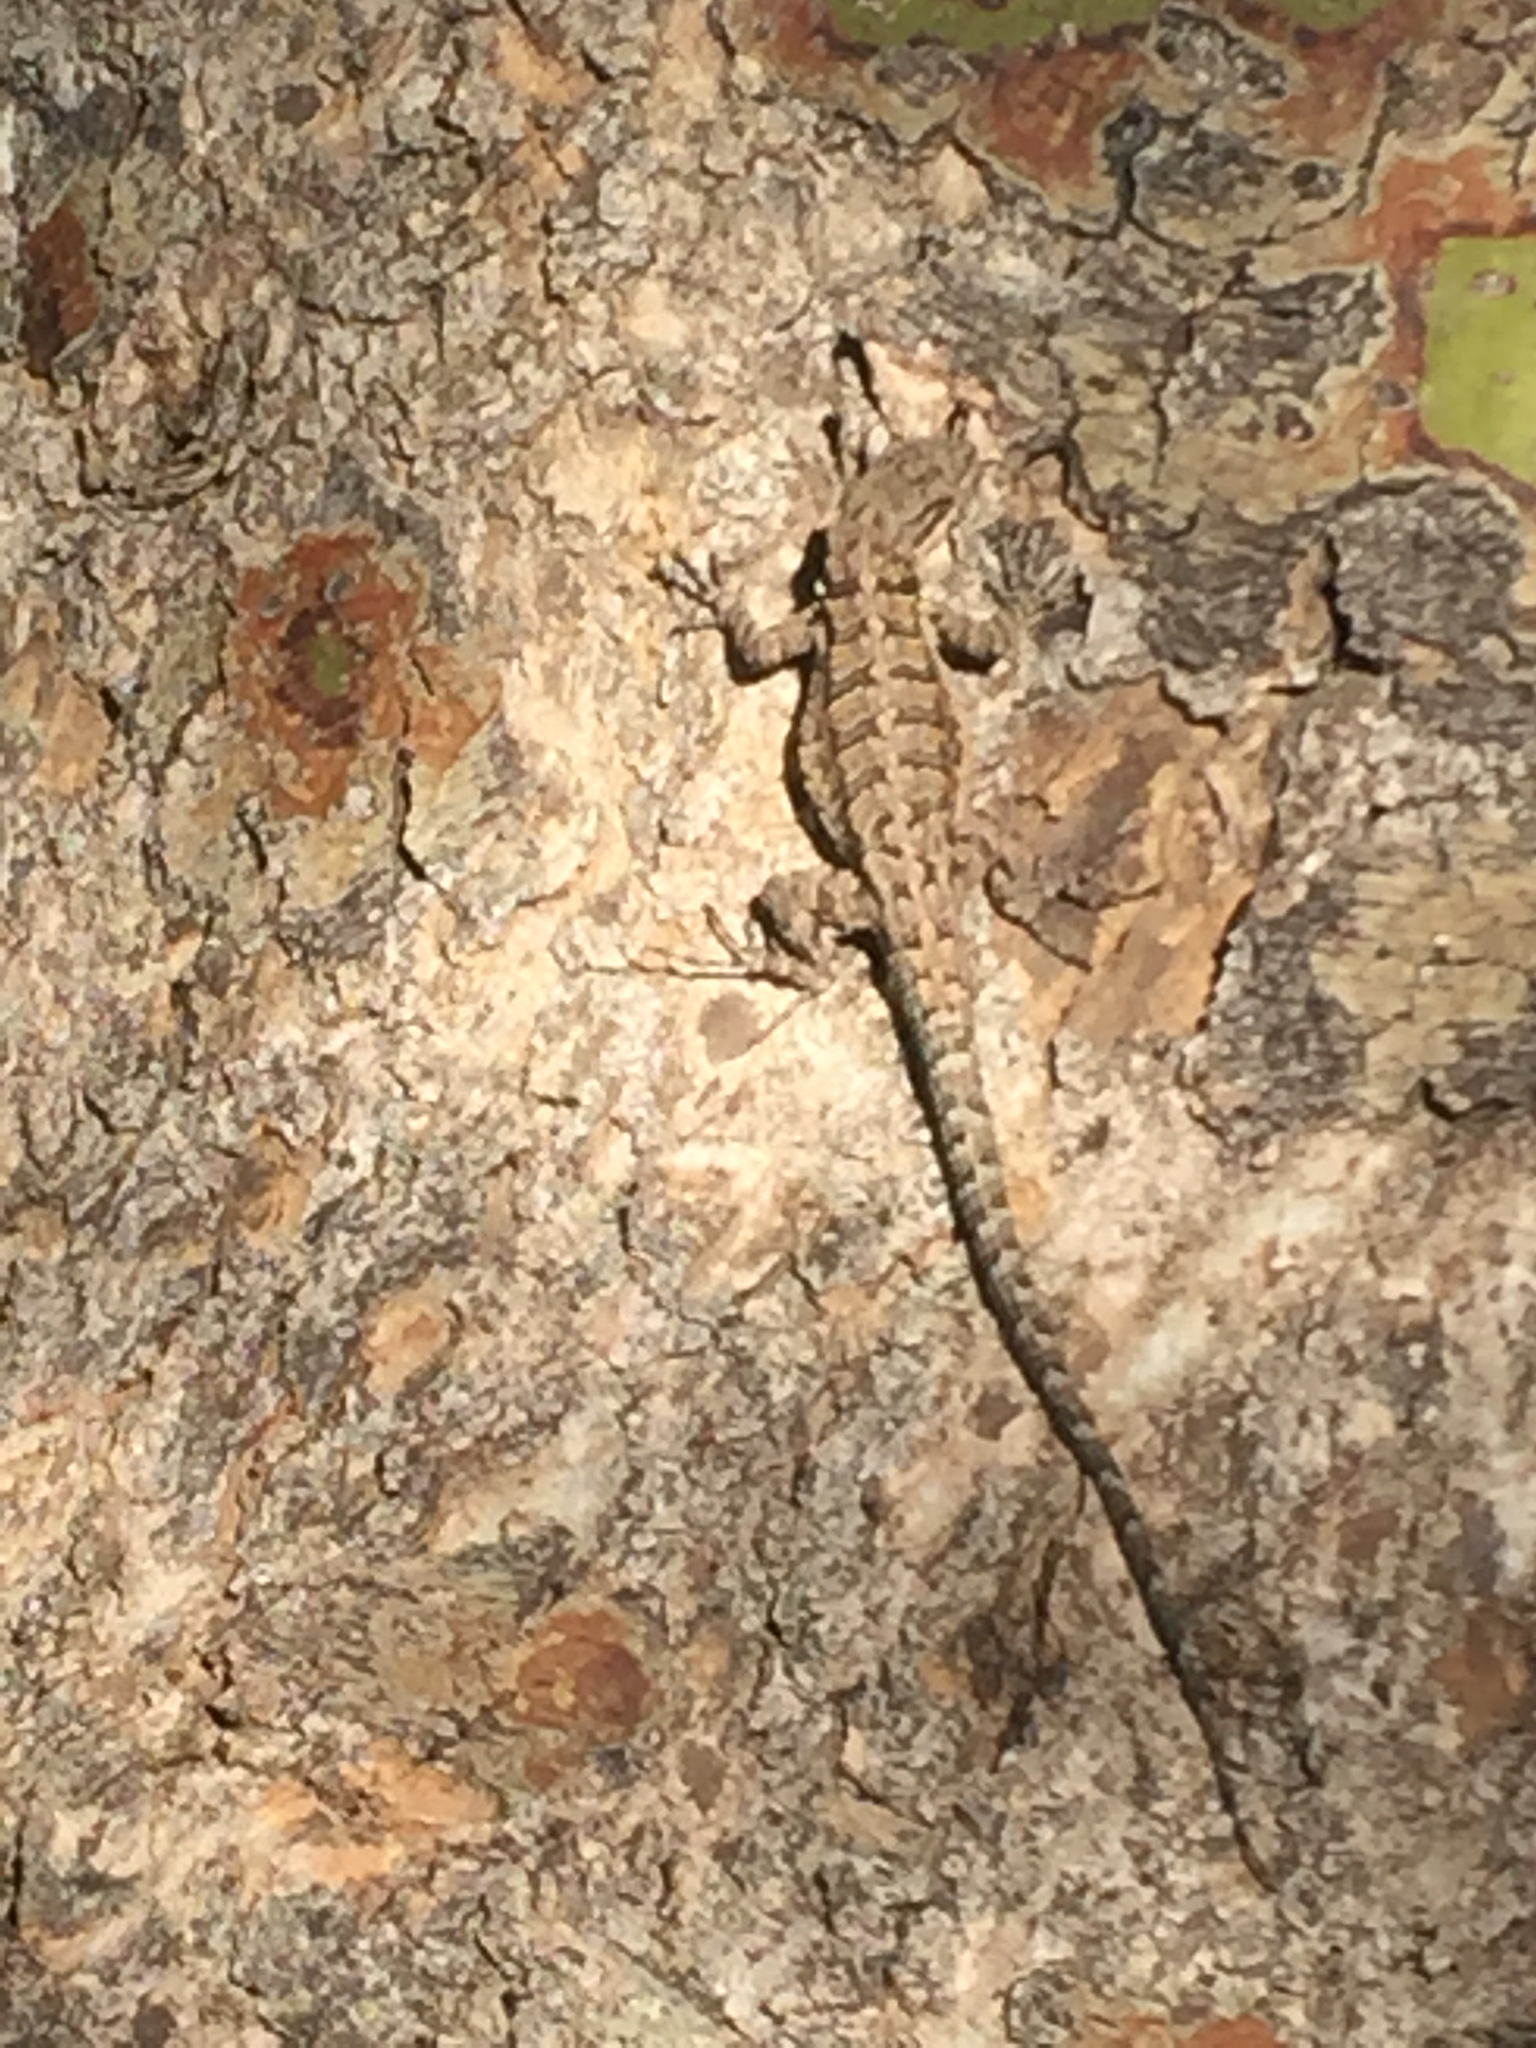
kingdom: Animalia
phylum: Chordata
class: Squamata
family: Phrynosomatidae
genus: Urosaurus
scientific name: Urosaurus ornatus
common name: Ornate tree lizard
